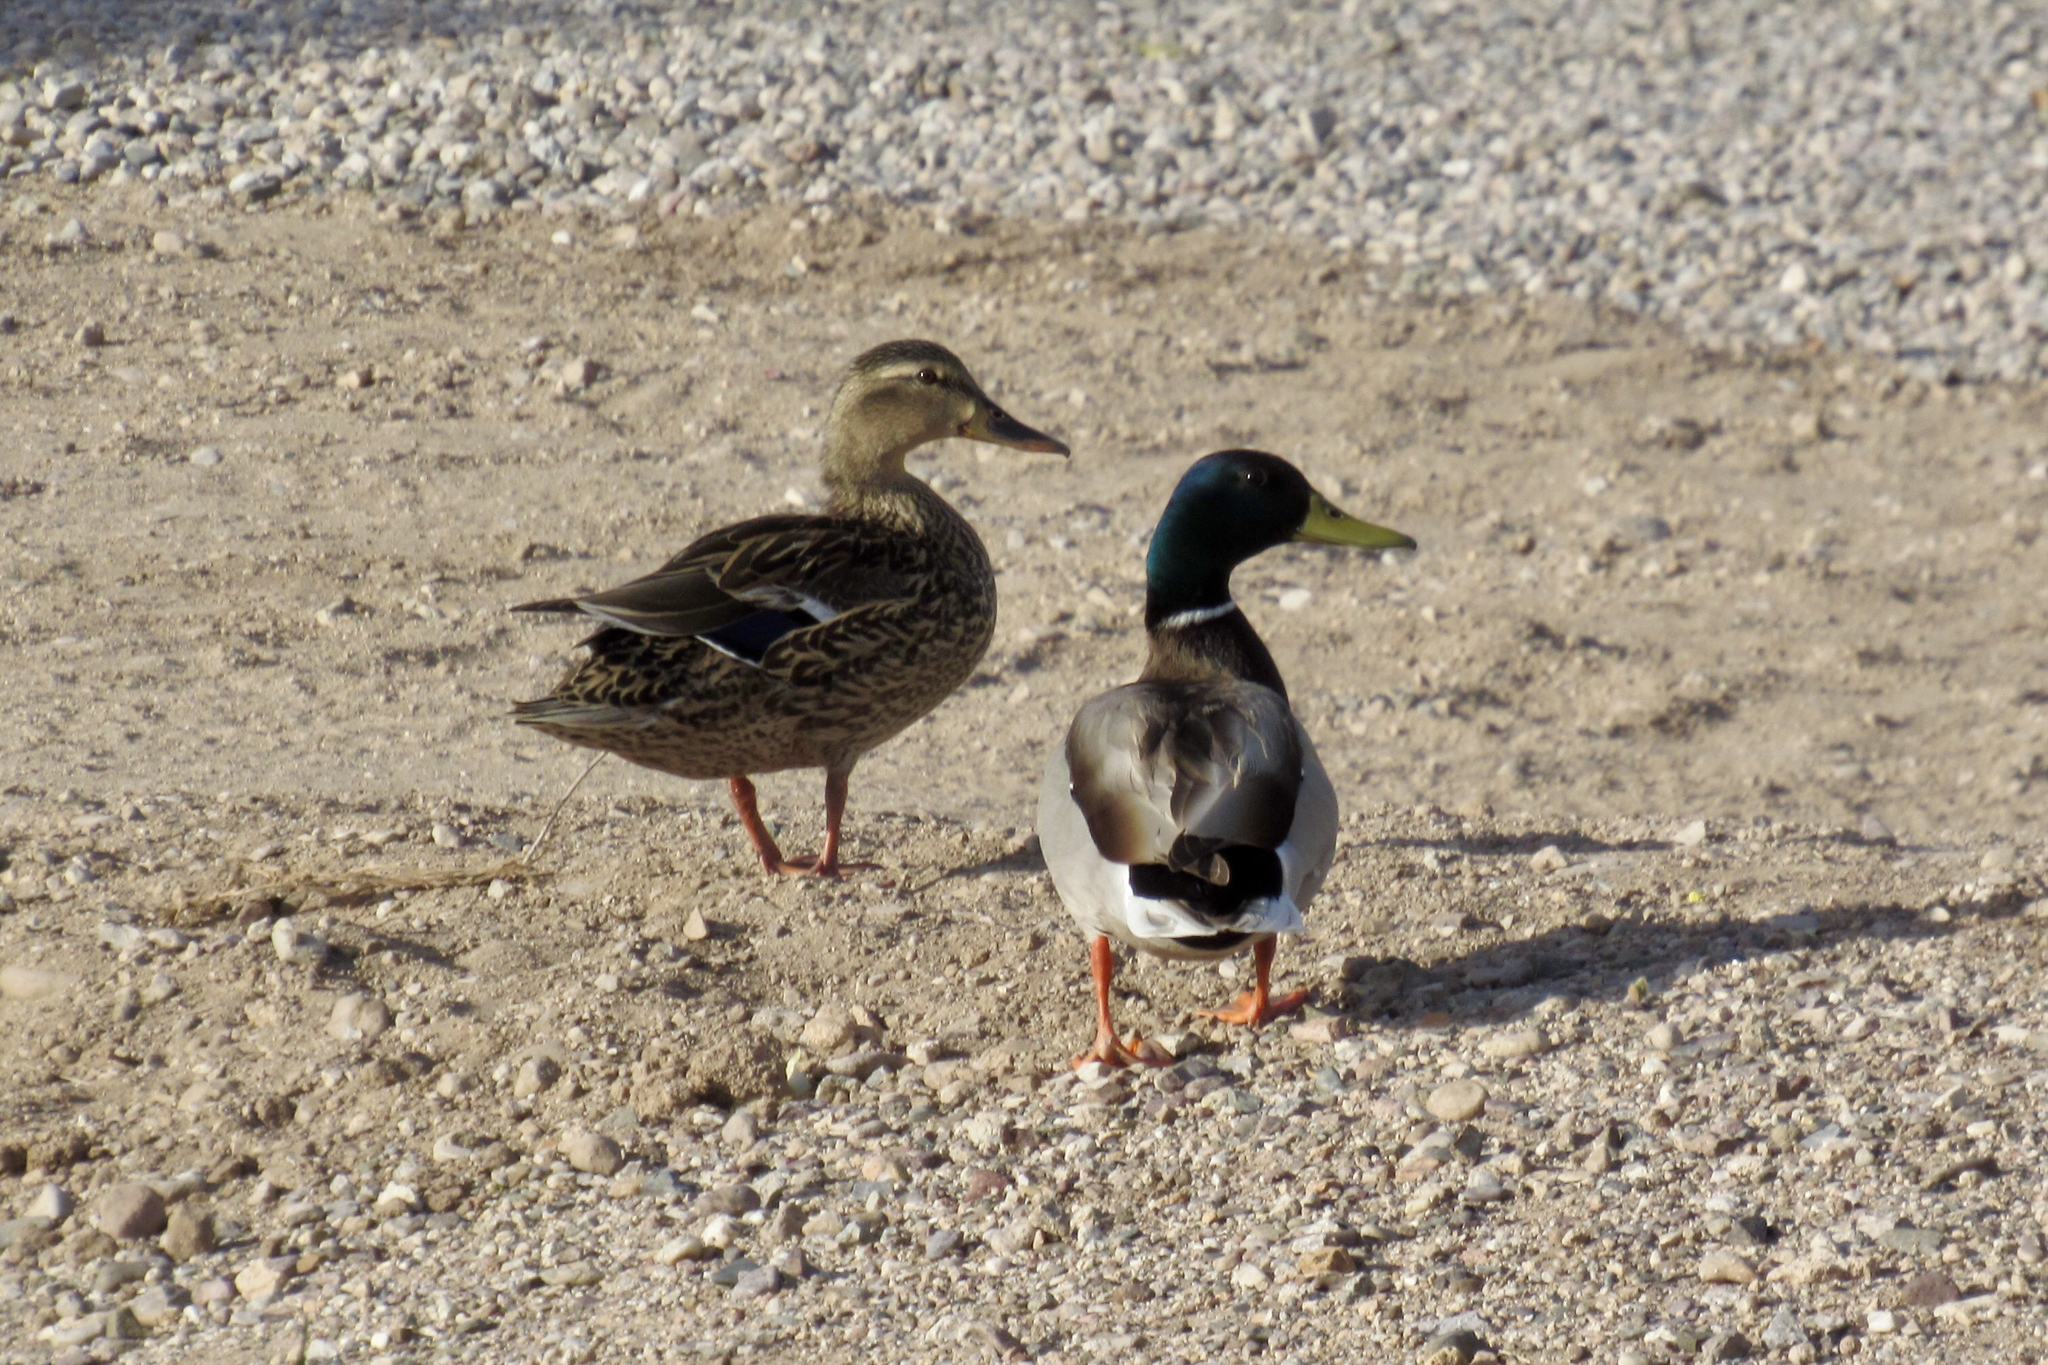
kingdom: Animalia
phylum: Chordata
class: Aves
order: Anseriformes
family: Anatidae
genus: Anas
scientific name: Anas platyrhynchos
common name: Mallard
